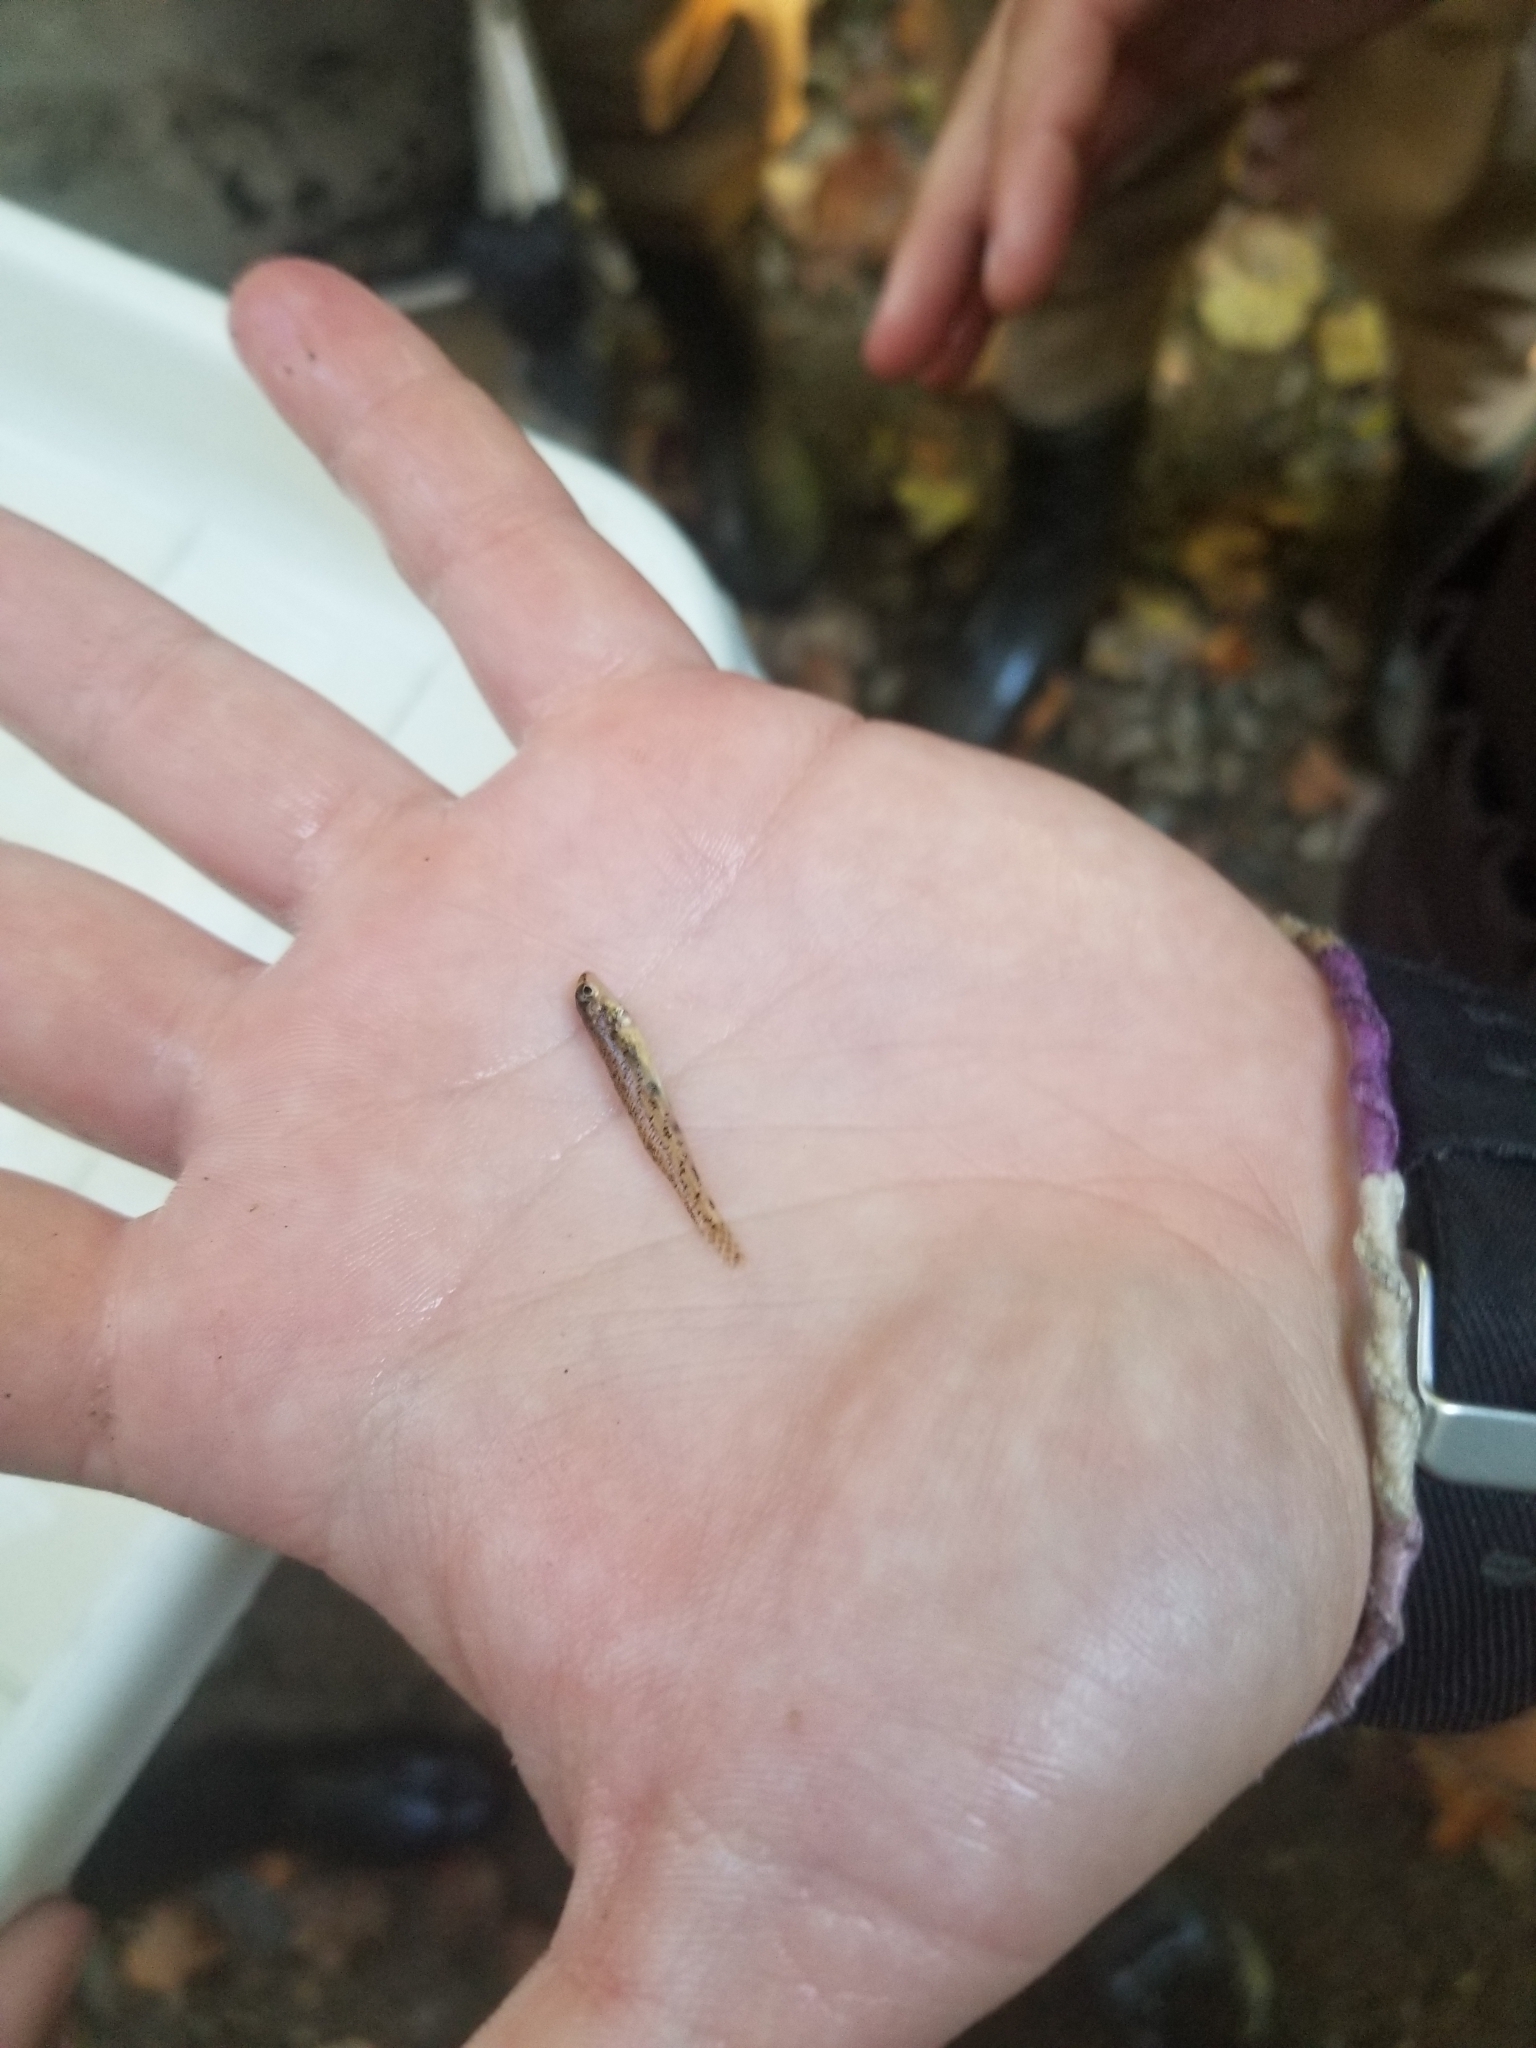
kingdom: Animalia
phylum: Chordata
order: Perciformes
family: Percidae
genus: Etheostoma
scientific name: Etheostoma nigrum
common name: Johnny darter
